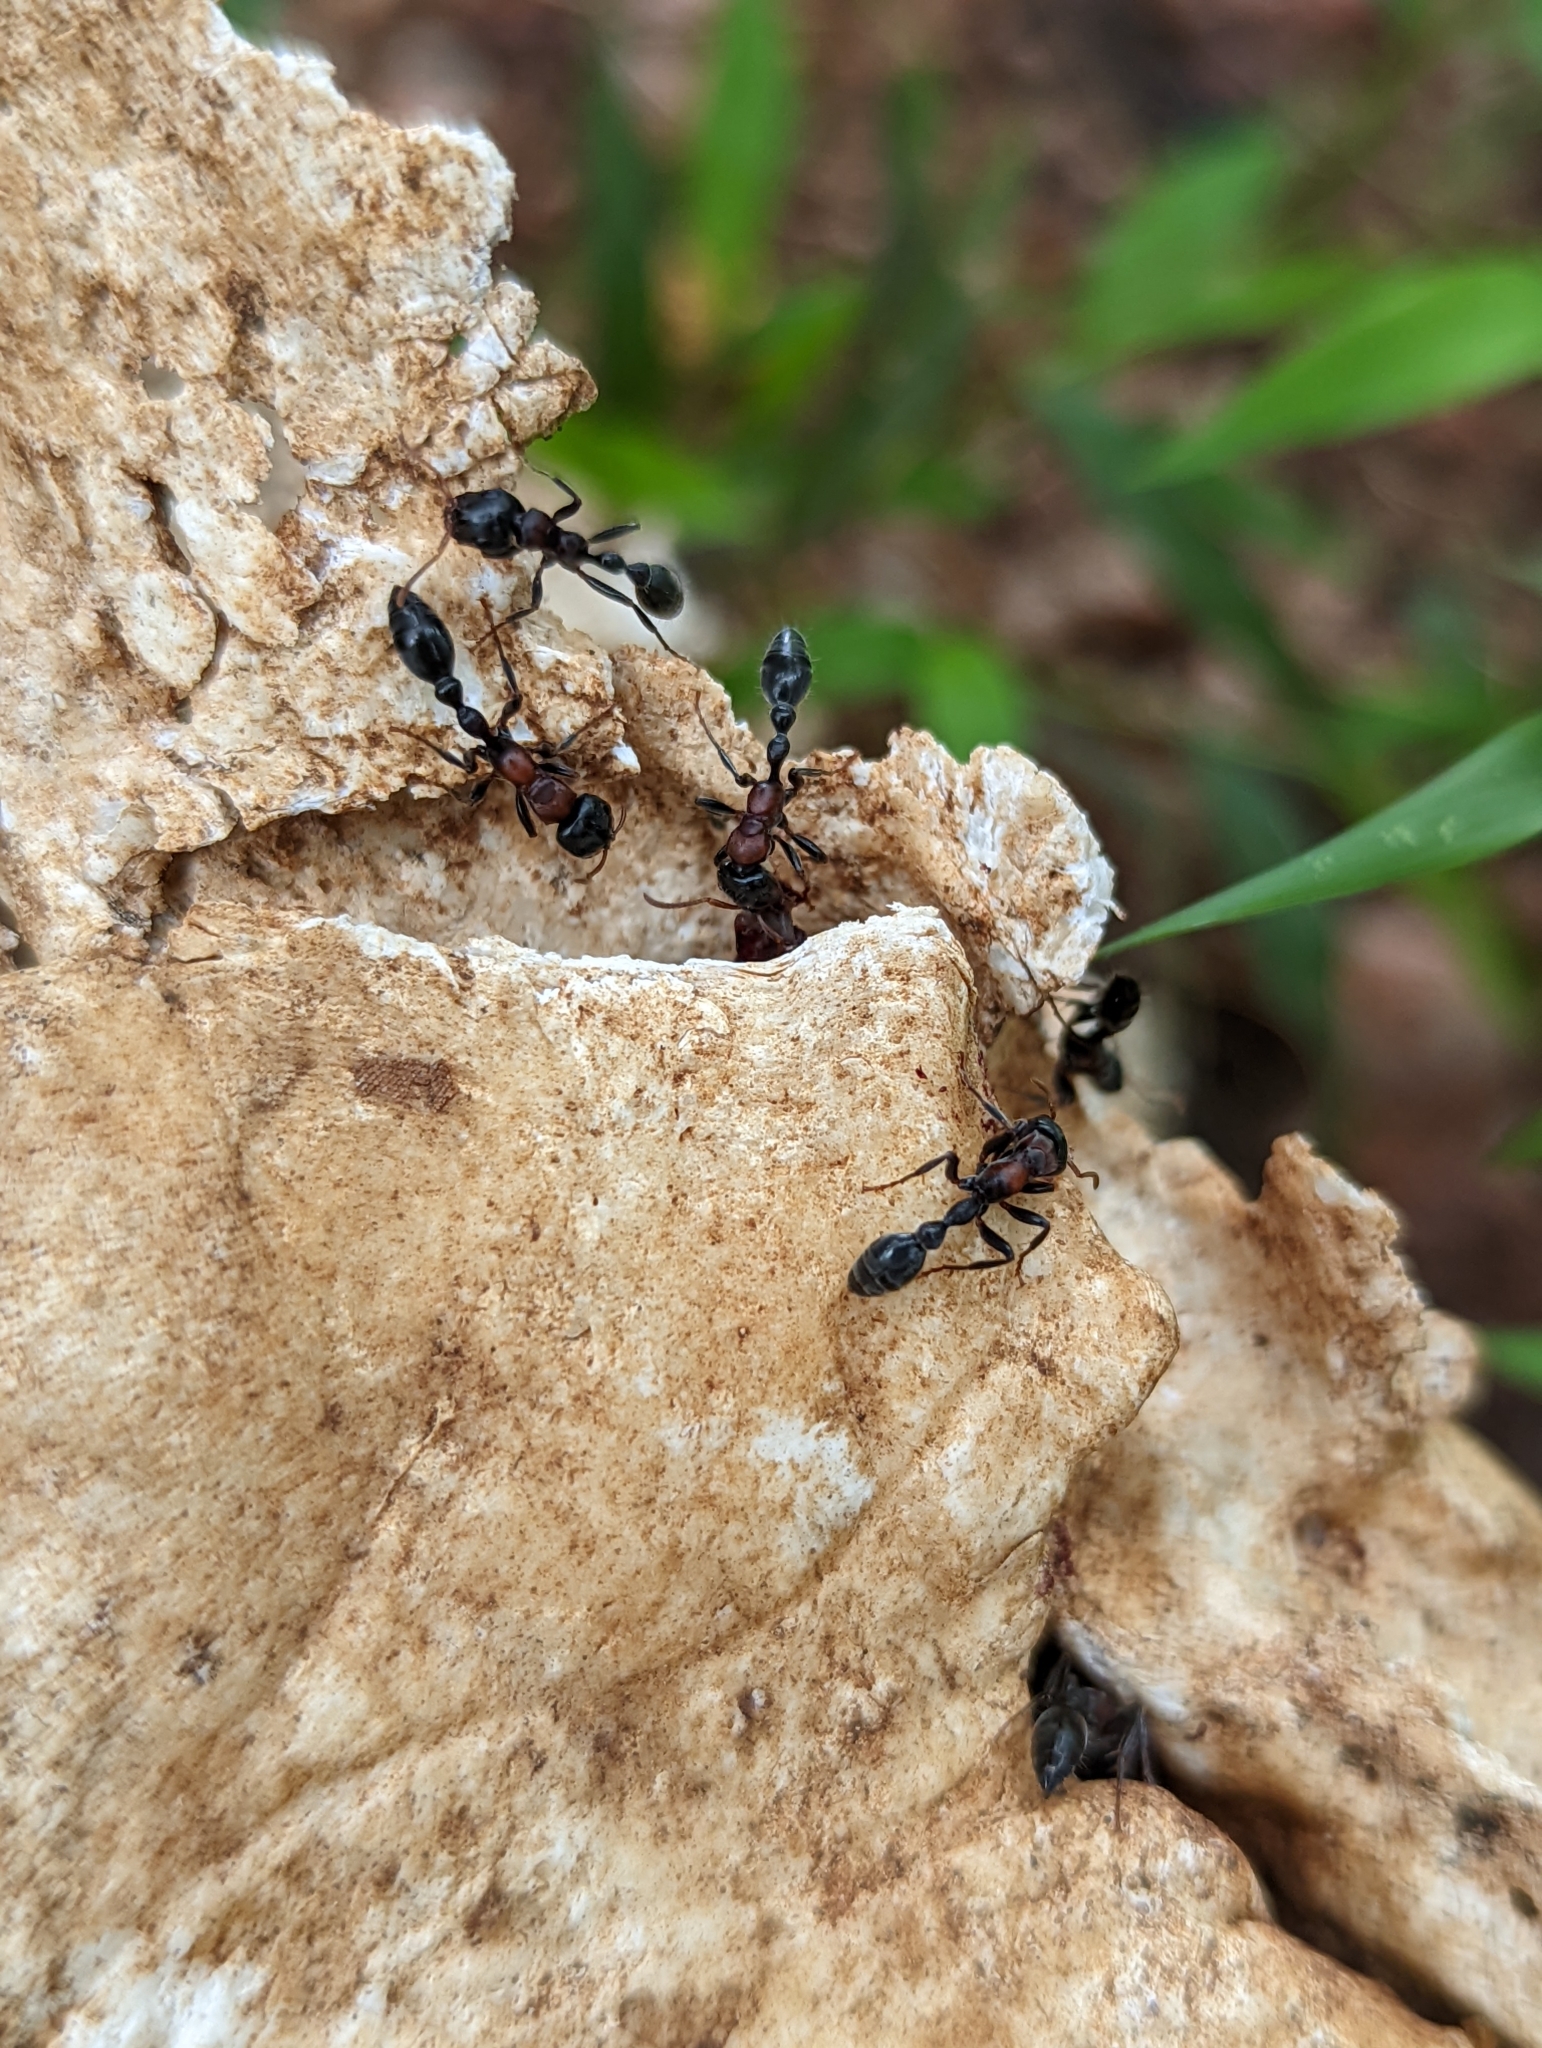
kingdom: Animalia
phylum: Arthropoda
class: Insecta
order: Hymenoptera
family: Formicidae
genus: Tetraponera
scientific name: Tetraponera rufonigra
